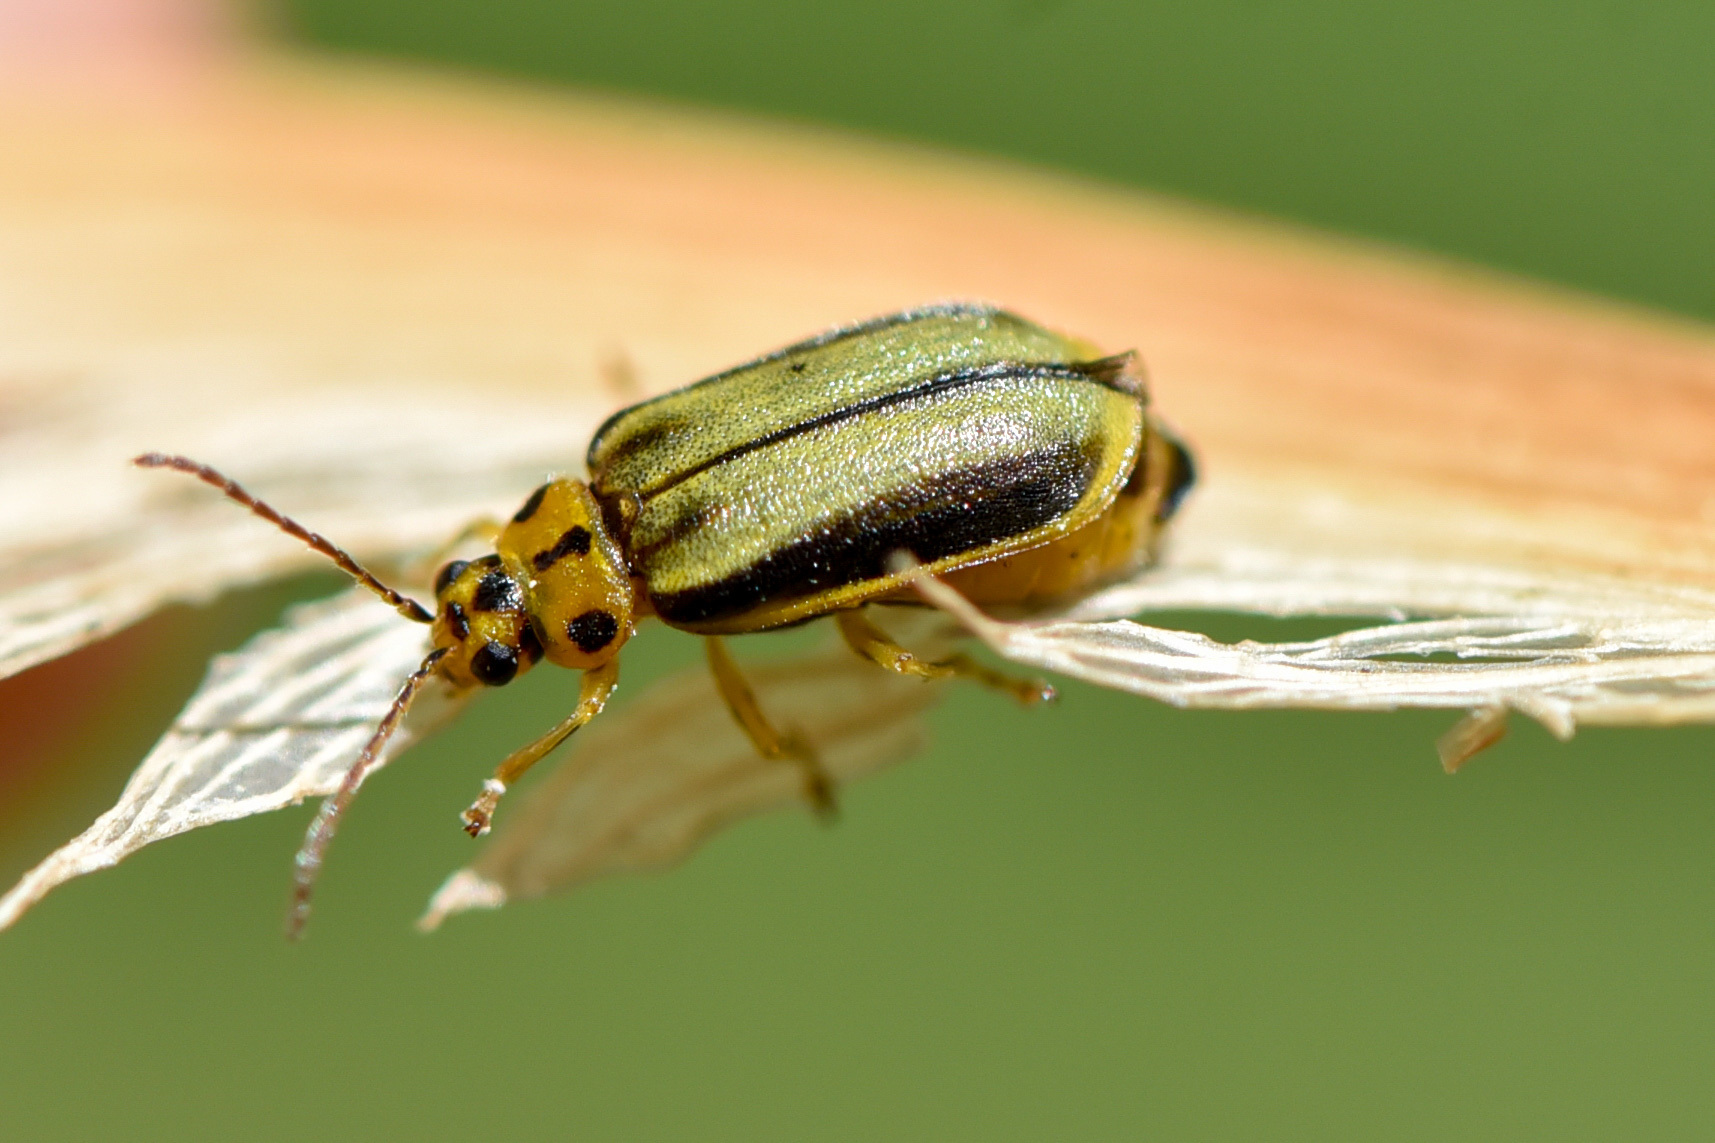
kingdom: Animalia
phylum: Arthropoda
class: Insecta
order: Coleoptera
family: Chrysomelidae
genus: Xanthogaleruca
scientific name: Xanthogaleruca luteola
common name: Elm leaf beetle
